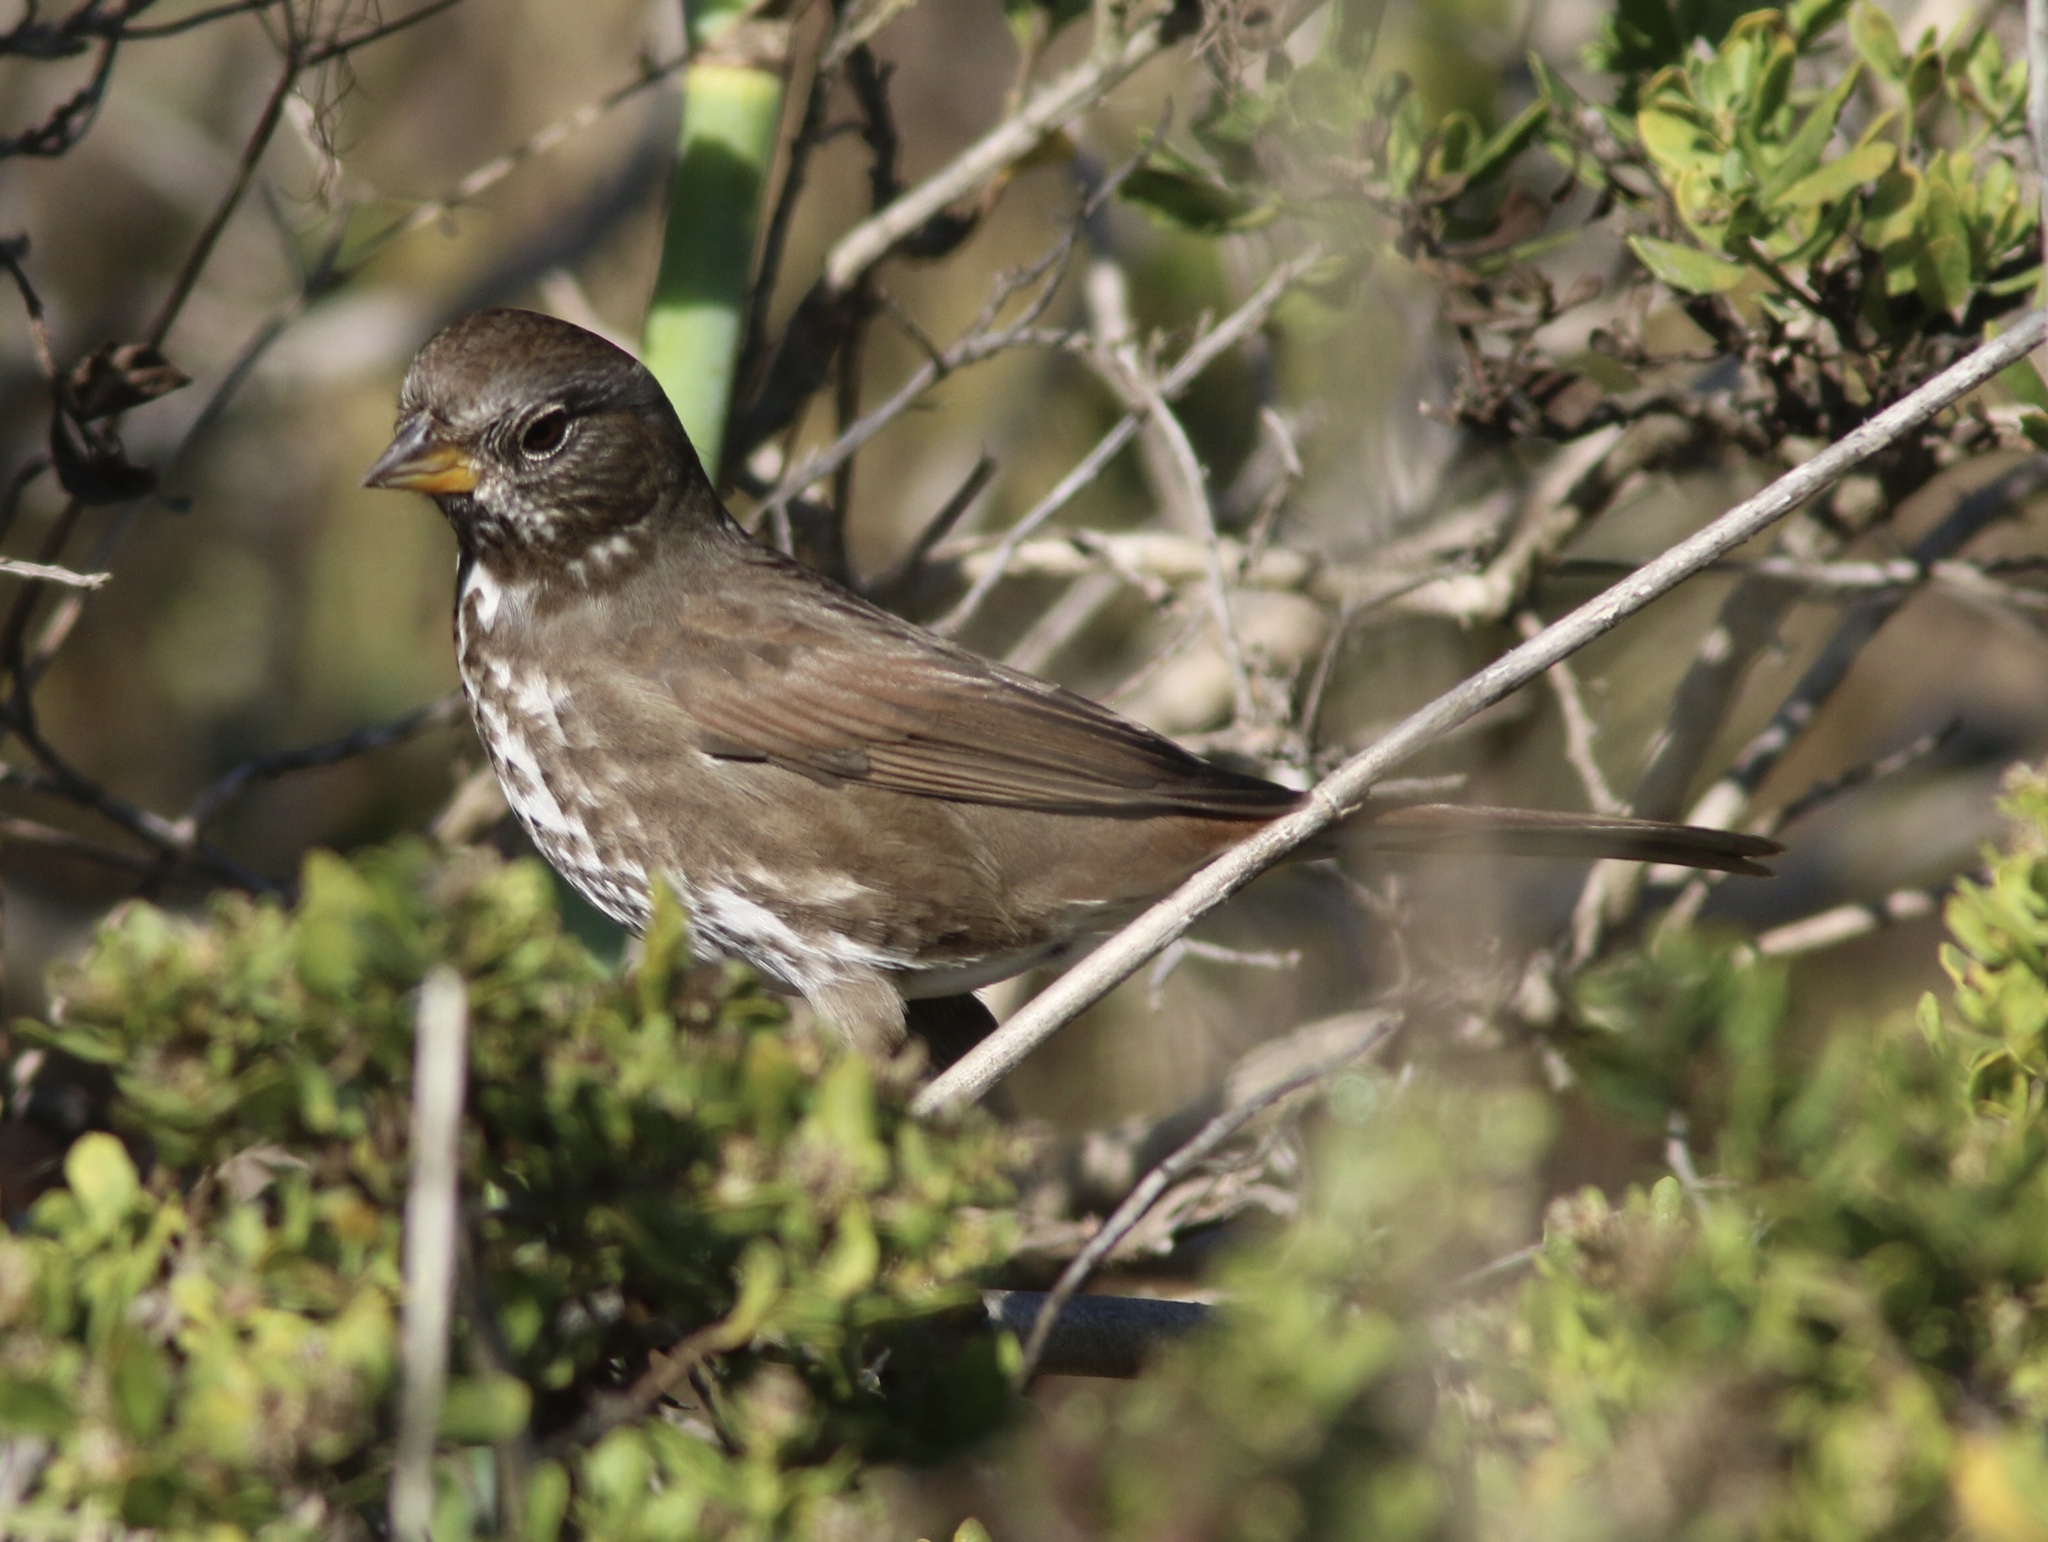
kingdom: Animalia
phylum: Chordata
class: Aves
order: Passeriformes
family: Passerellidae
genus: Passerella
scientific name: Passerella iliaca
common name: Fox sparrow
